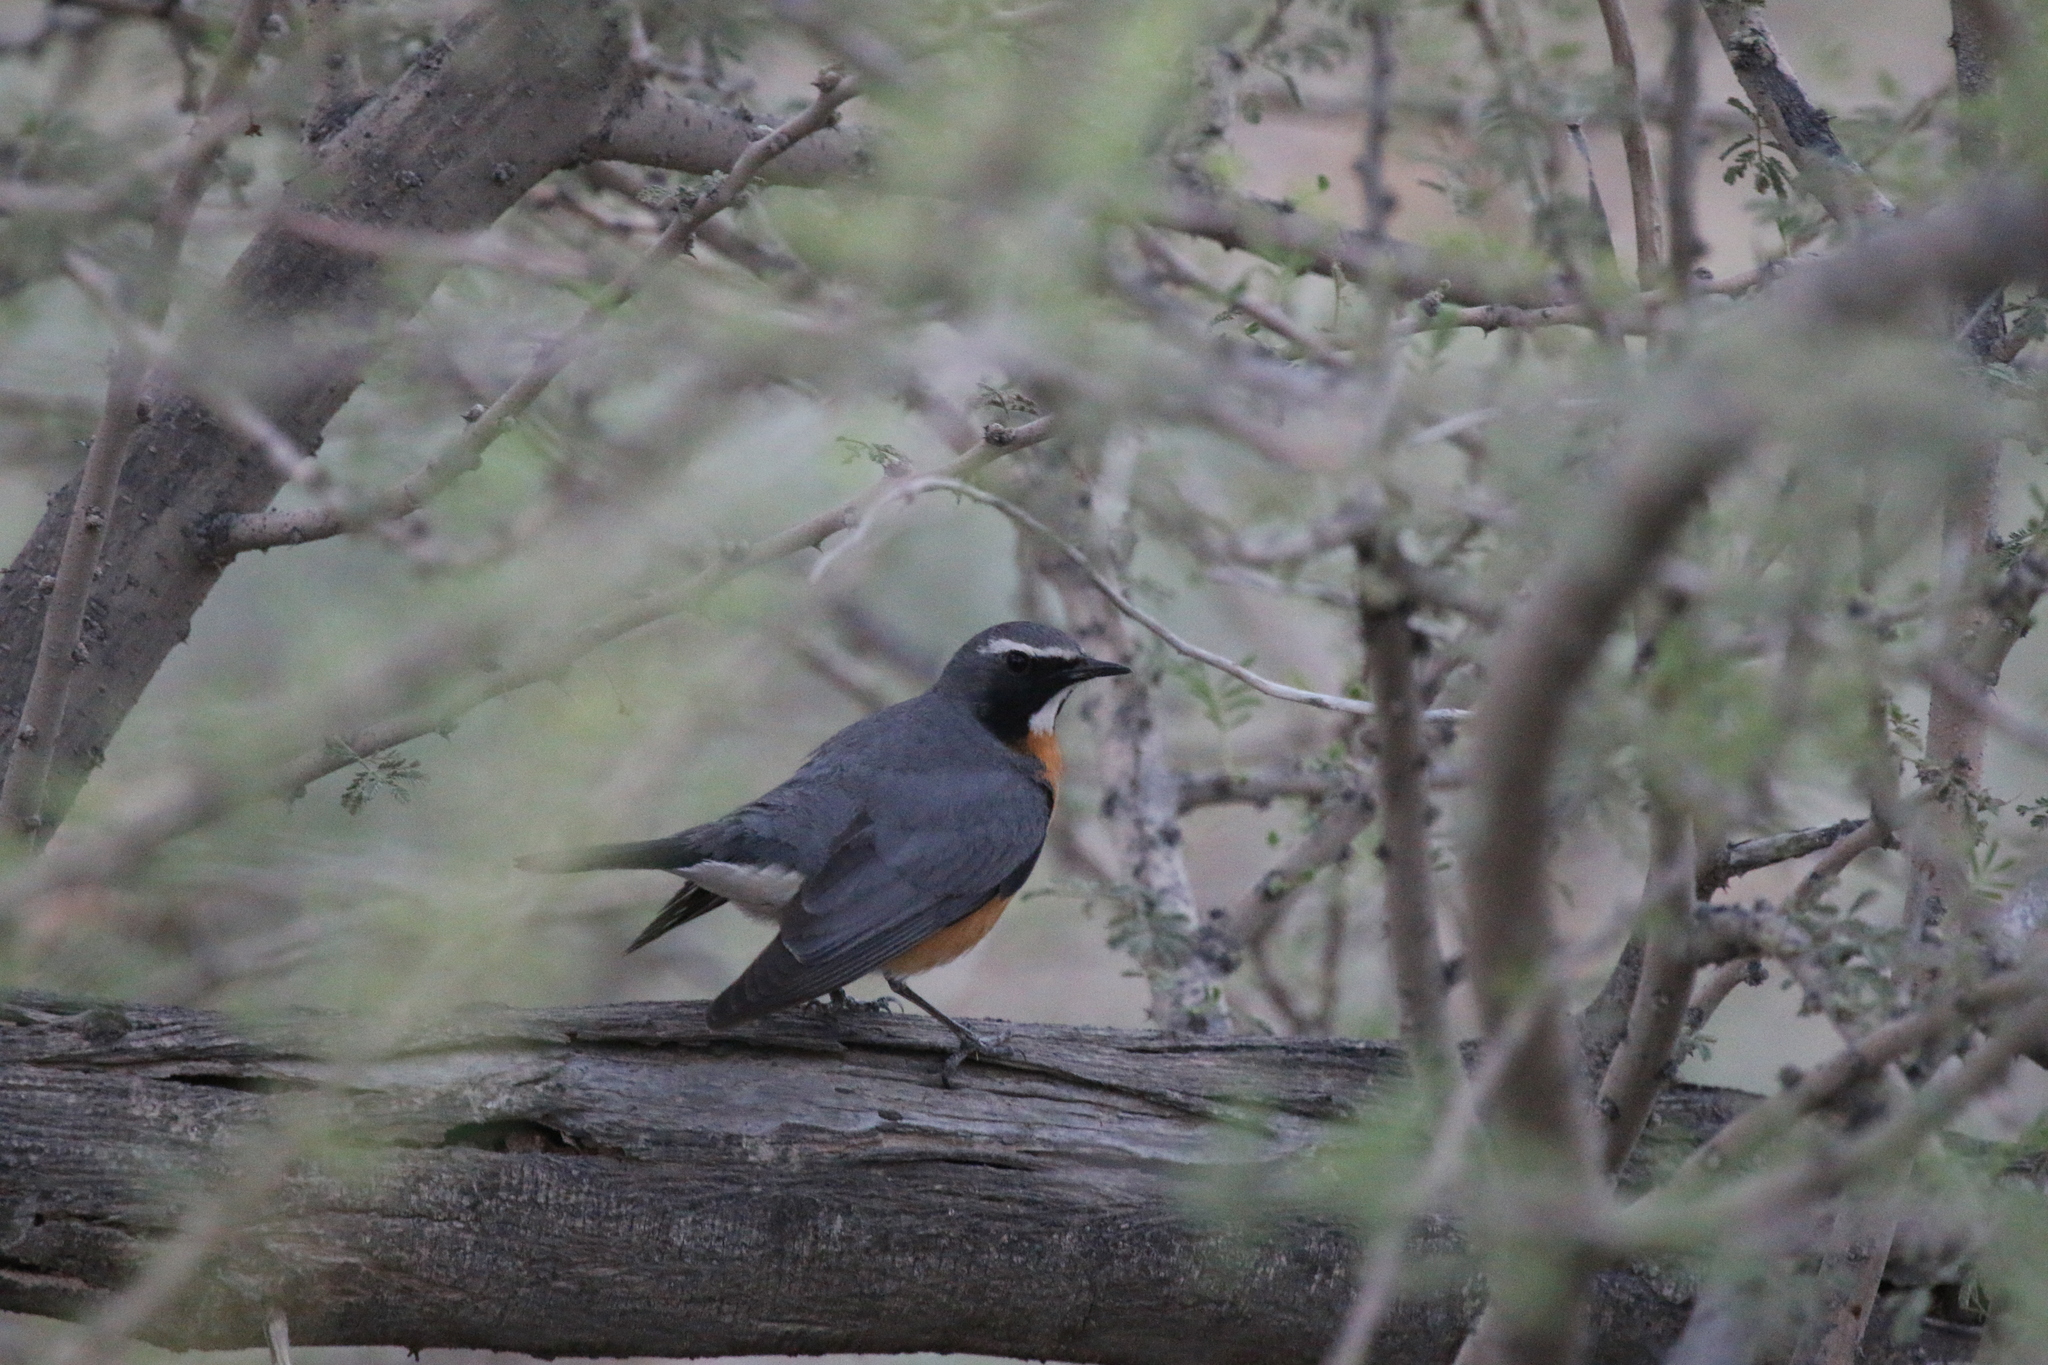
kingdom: Animalia
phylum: Chordata
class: Aves
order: Passeriformes
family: Muscicapidae
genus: Irania
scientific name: Irania gutturalis
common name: White-throated robin
